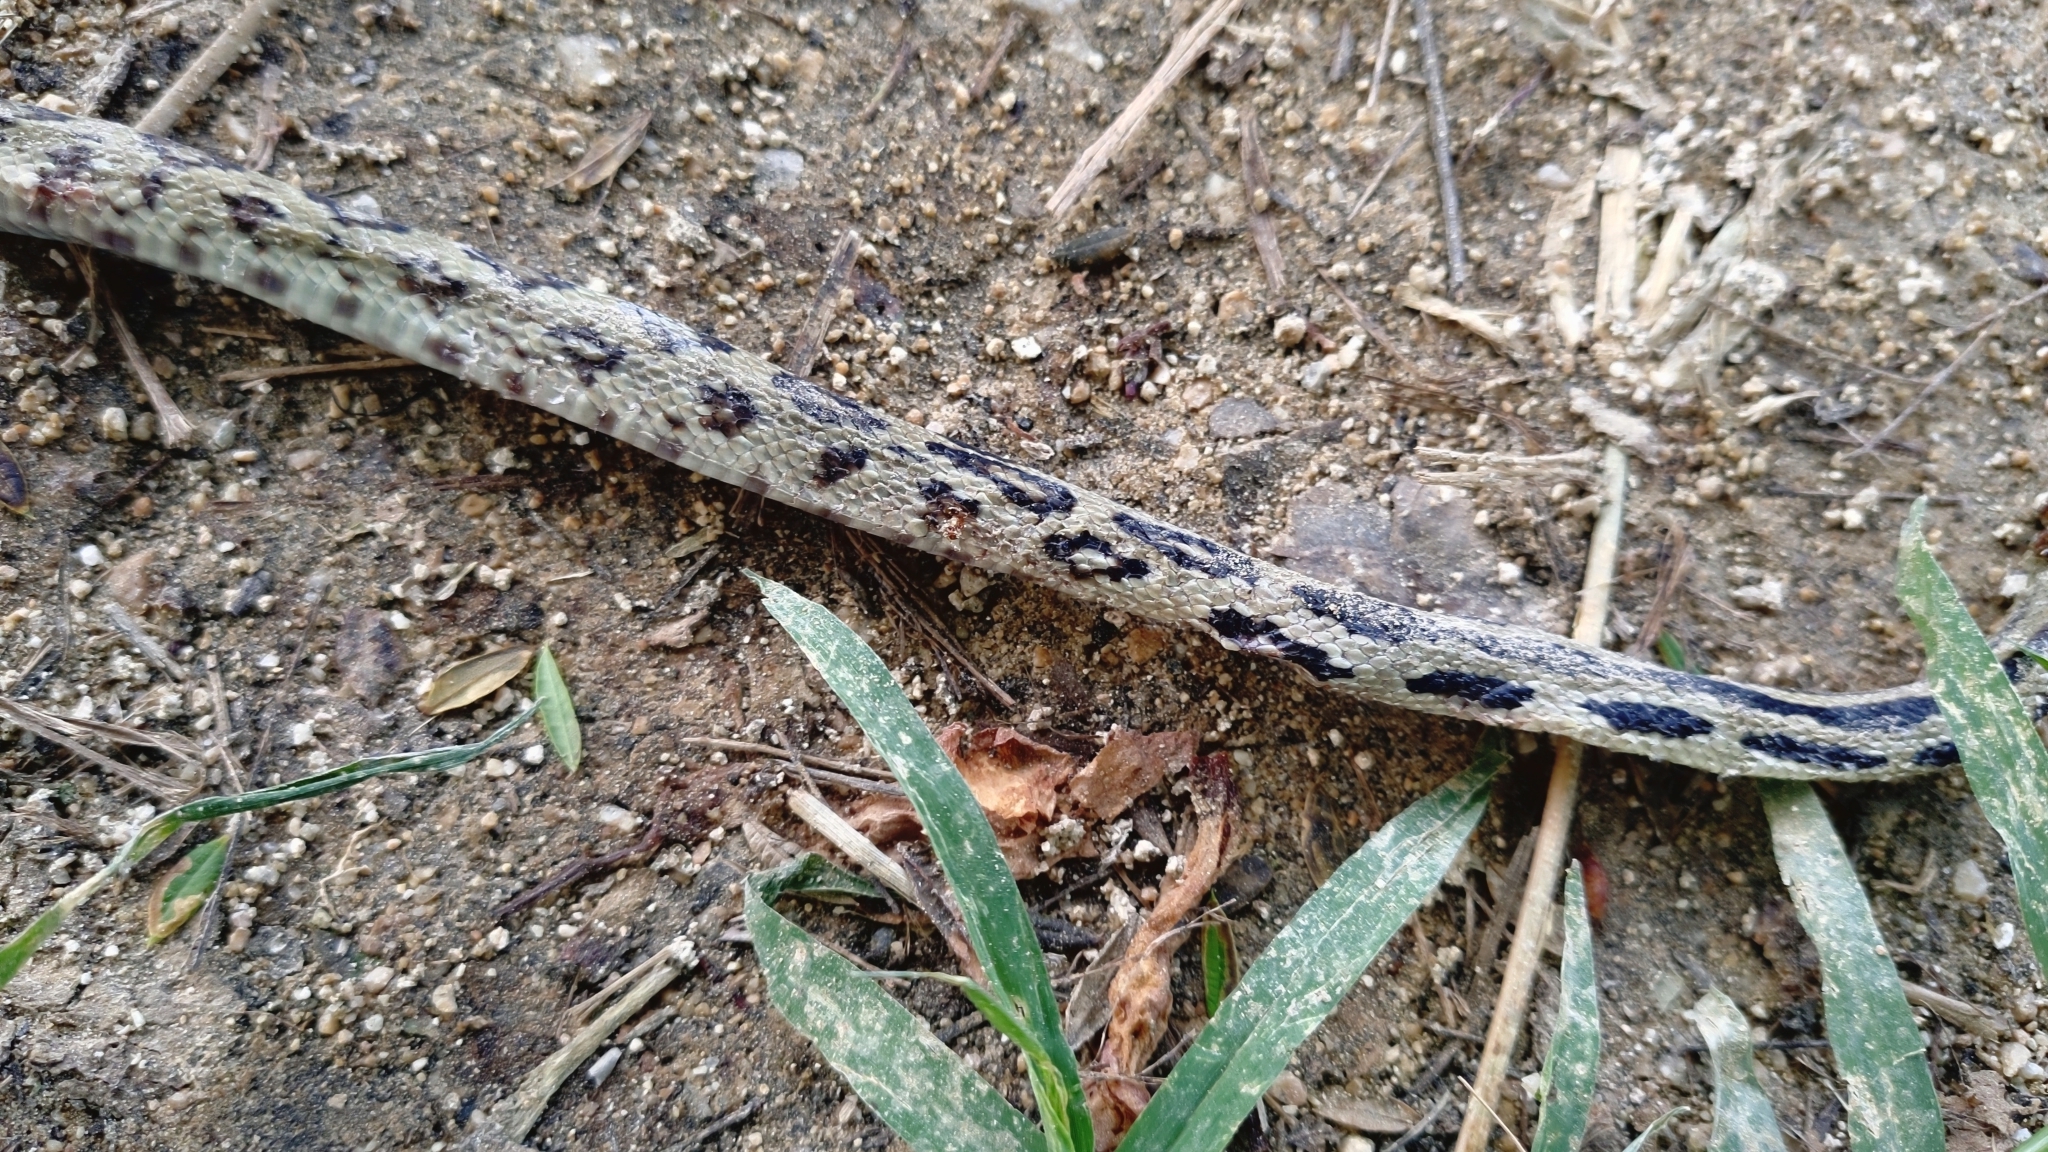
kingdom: Animalia
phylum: Chordata
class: Squamata
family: Colubridae
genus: Pituophis
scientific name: Pituophis lineaticollis
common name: Cincuate bull snake
